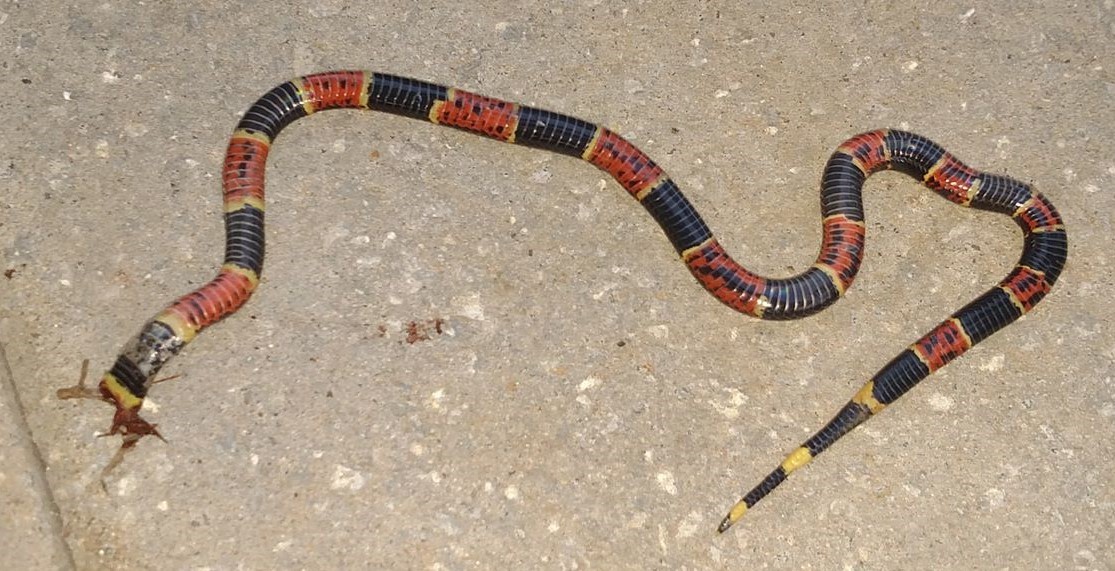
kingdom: Animalia
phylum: Chordata
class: Squamata
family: Elapidae
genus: Micrurus
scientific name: Micrurus tener
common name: Texas coral snake
